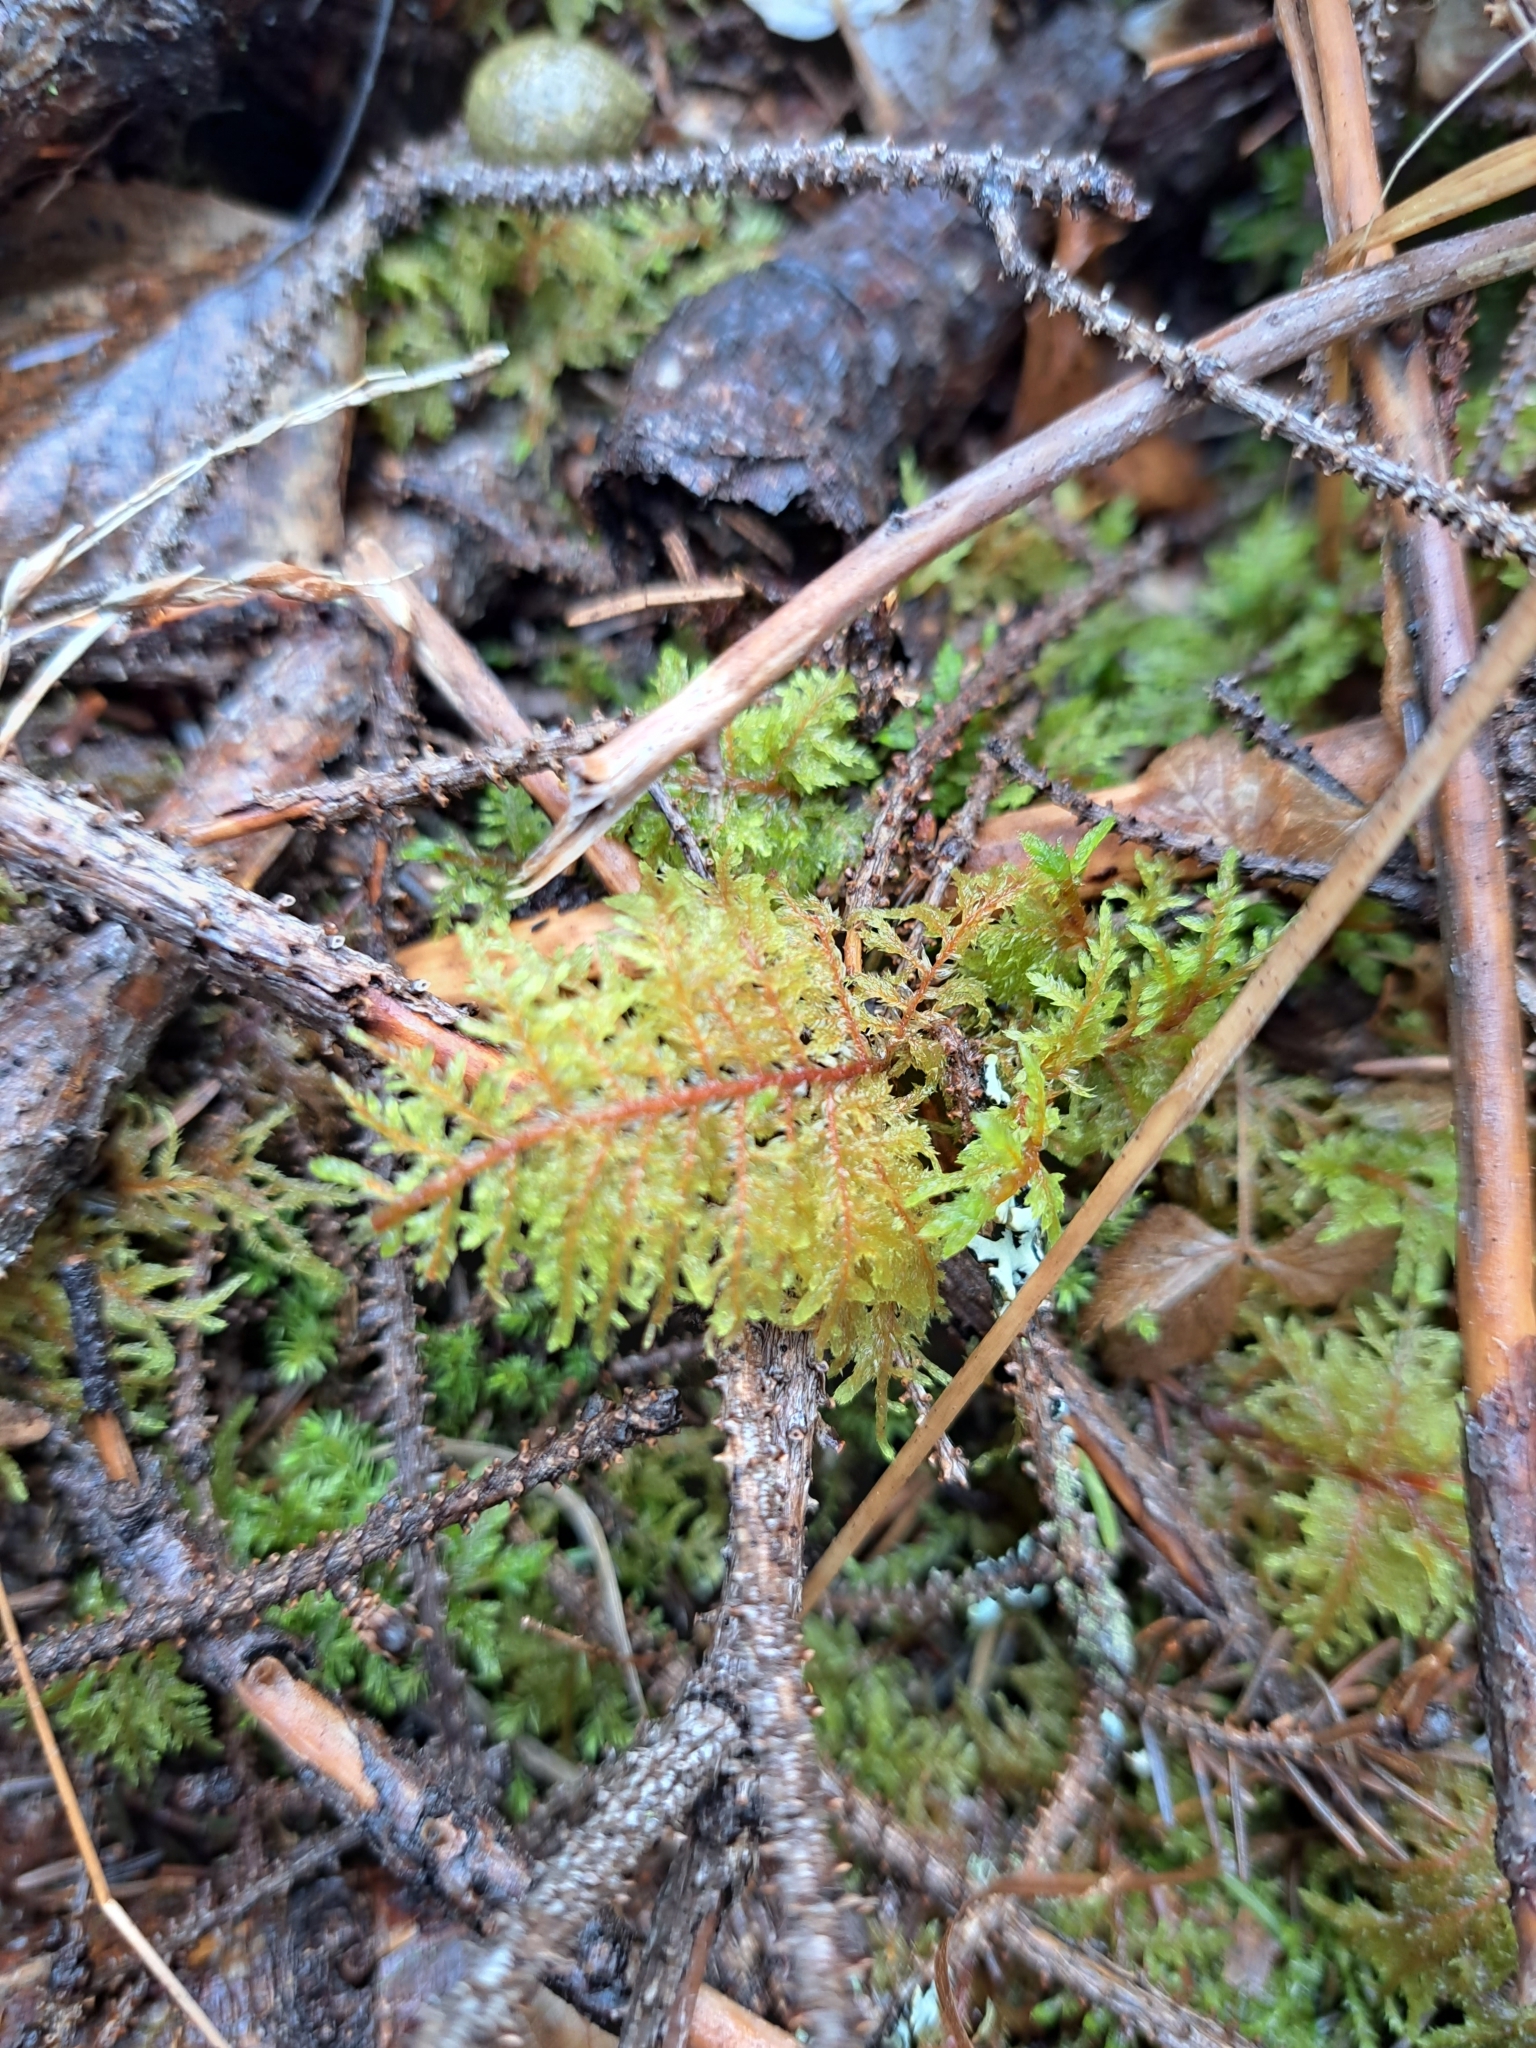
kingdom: Plantae
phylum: Bryophyta
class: Bryopsida
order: Hypnales
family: Hylocomiaceae
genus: Hylocomium
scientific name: Hylocomium splendens
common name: Stairstep moss
